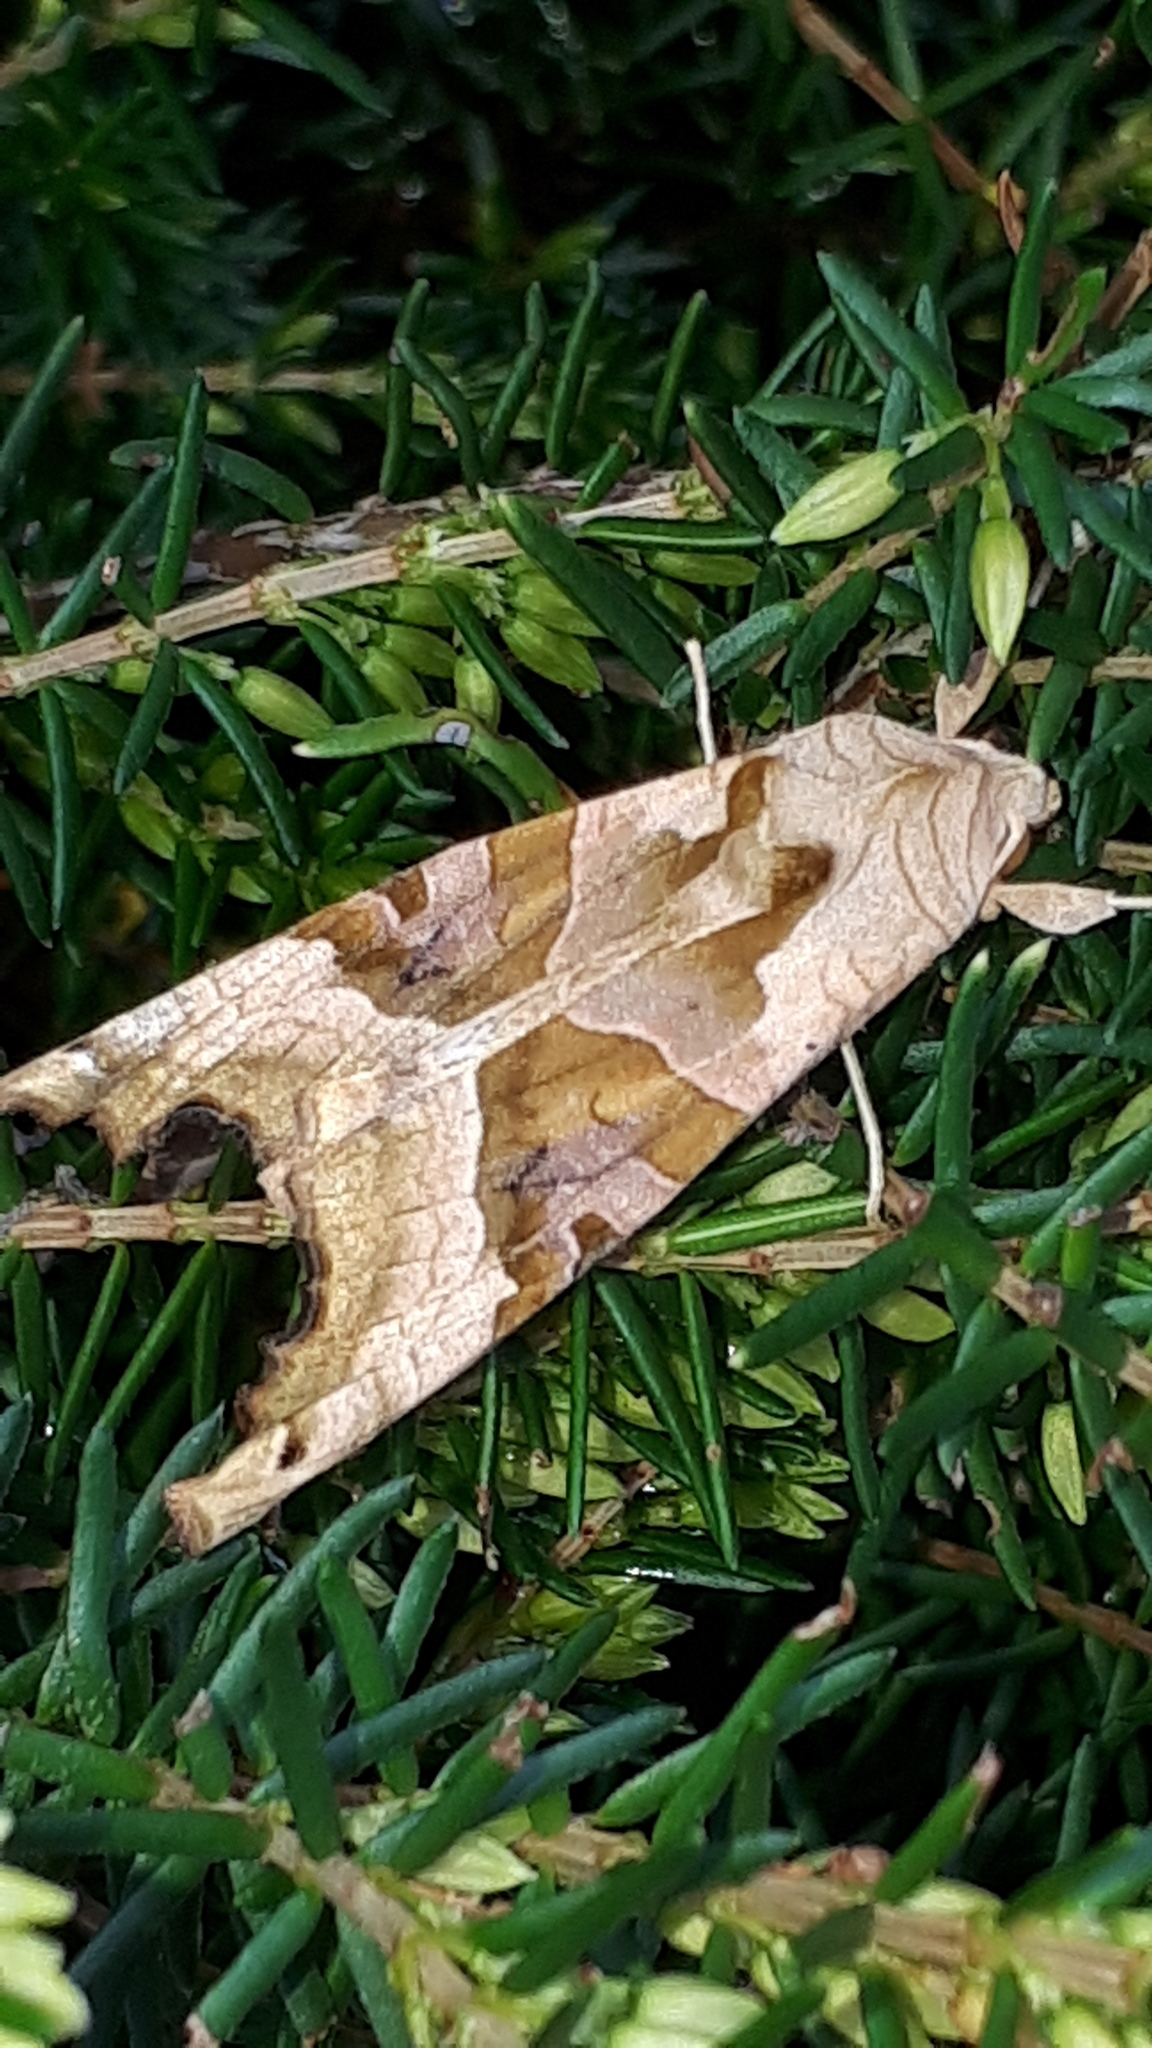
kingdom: Animalia
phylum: Arthropoda
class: Insecta
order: Lepidoptera
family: Noctuidae
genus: Phlogophora
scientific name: Phlogophora meticulosa
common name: Angle shades
